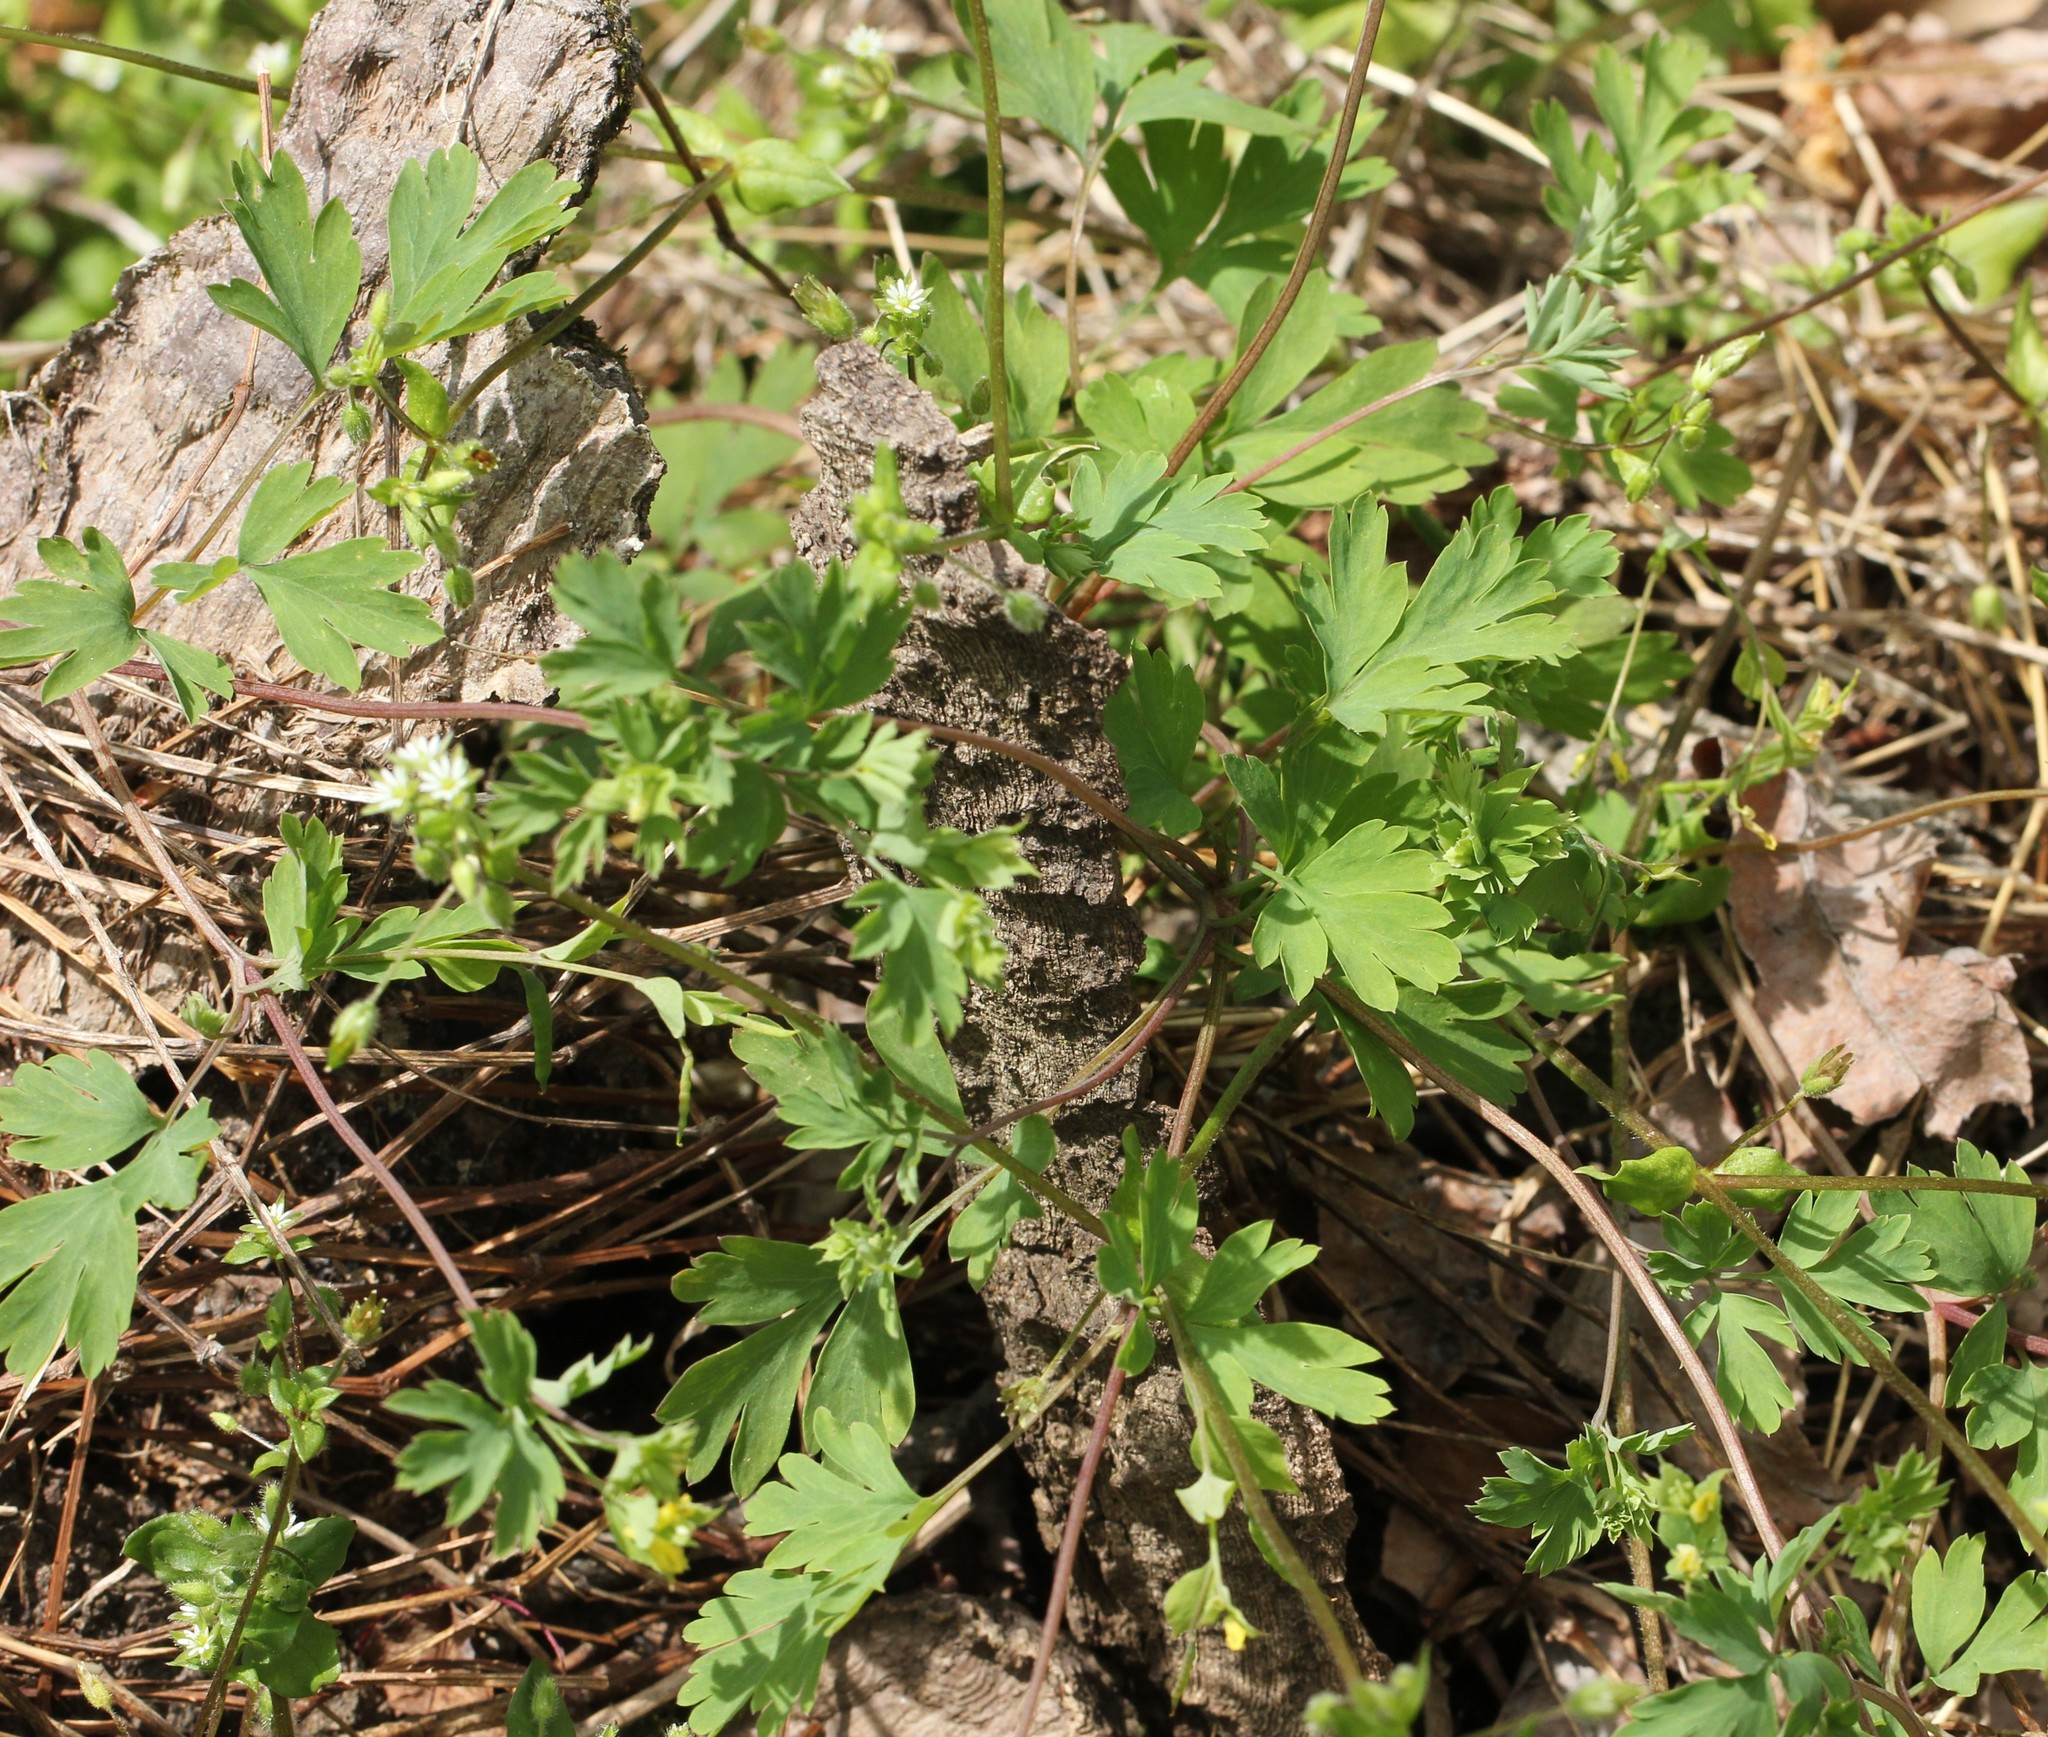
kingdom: Plantae
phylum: Tracheophyta
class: Magnoliopsida
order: Ranunculales
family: Papaveraceae
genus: Corydalis
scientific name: Corydalis flavula
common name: Yellow corydalis
